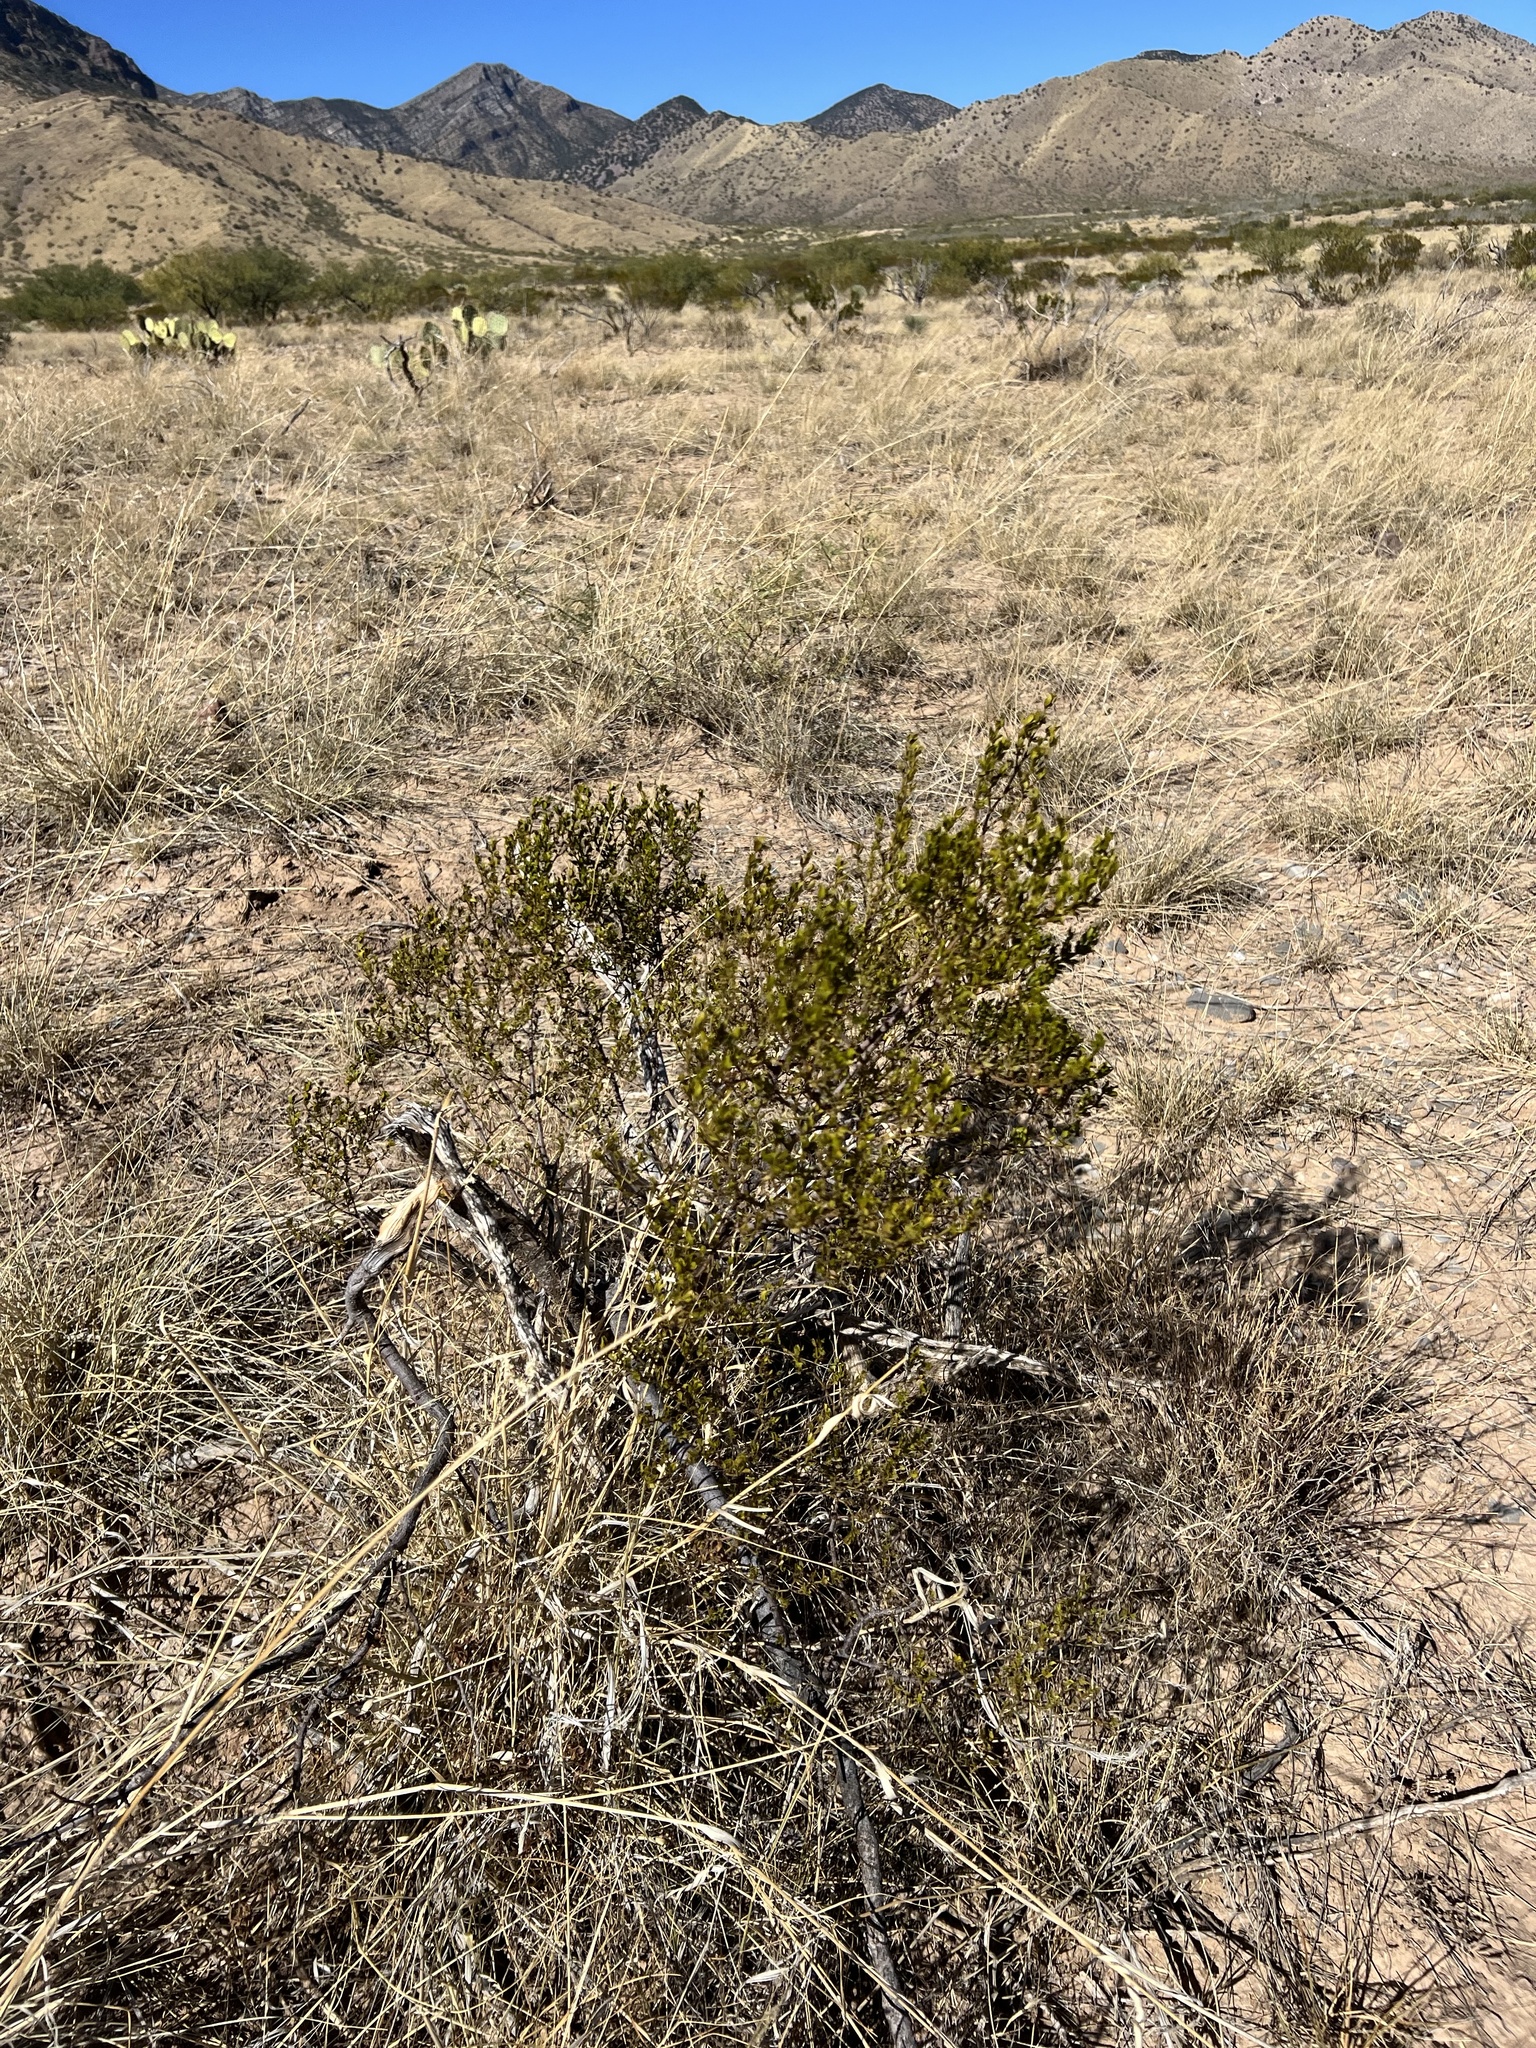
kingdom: Plantae
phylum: Tracheophyta
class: Magnoliopsida
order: Zygophyllales
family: Zygophyllaceae
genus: Larrea
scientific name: Larrea tridentata
